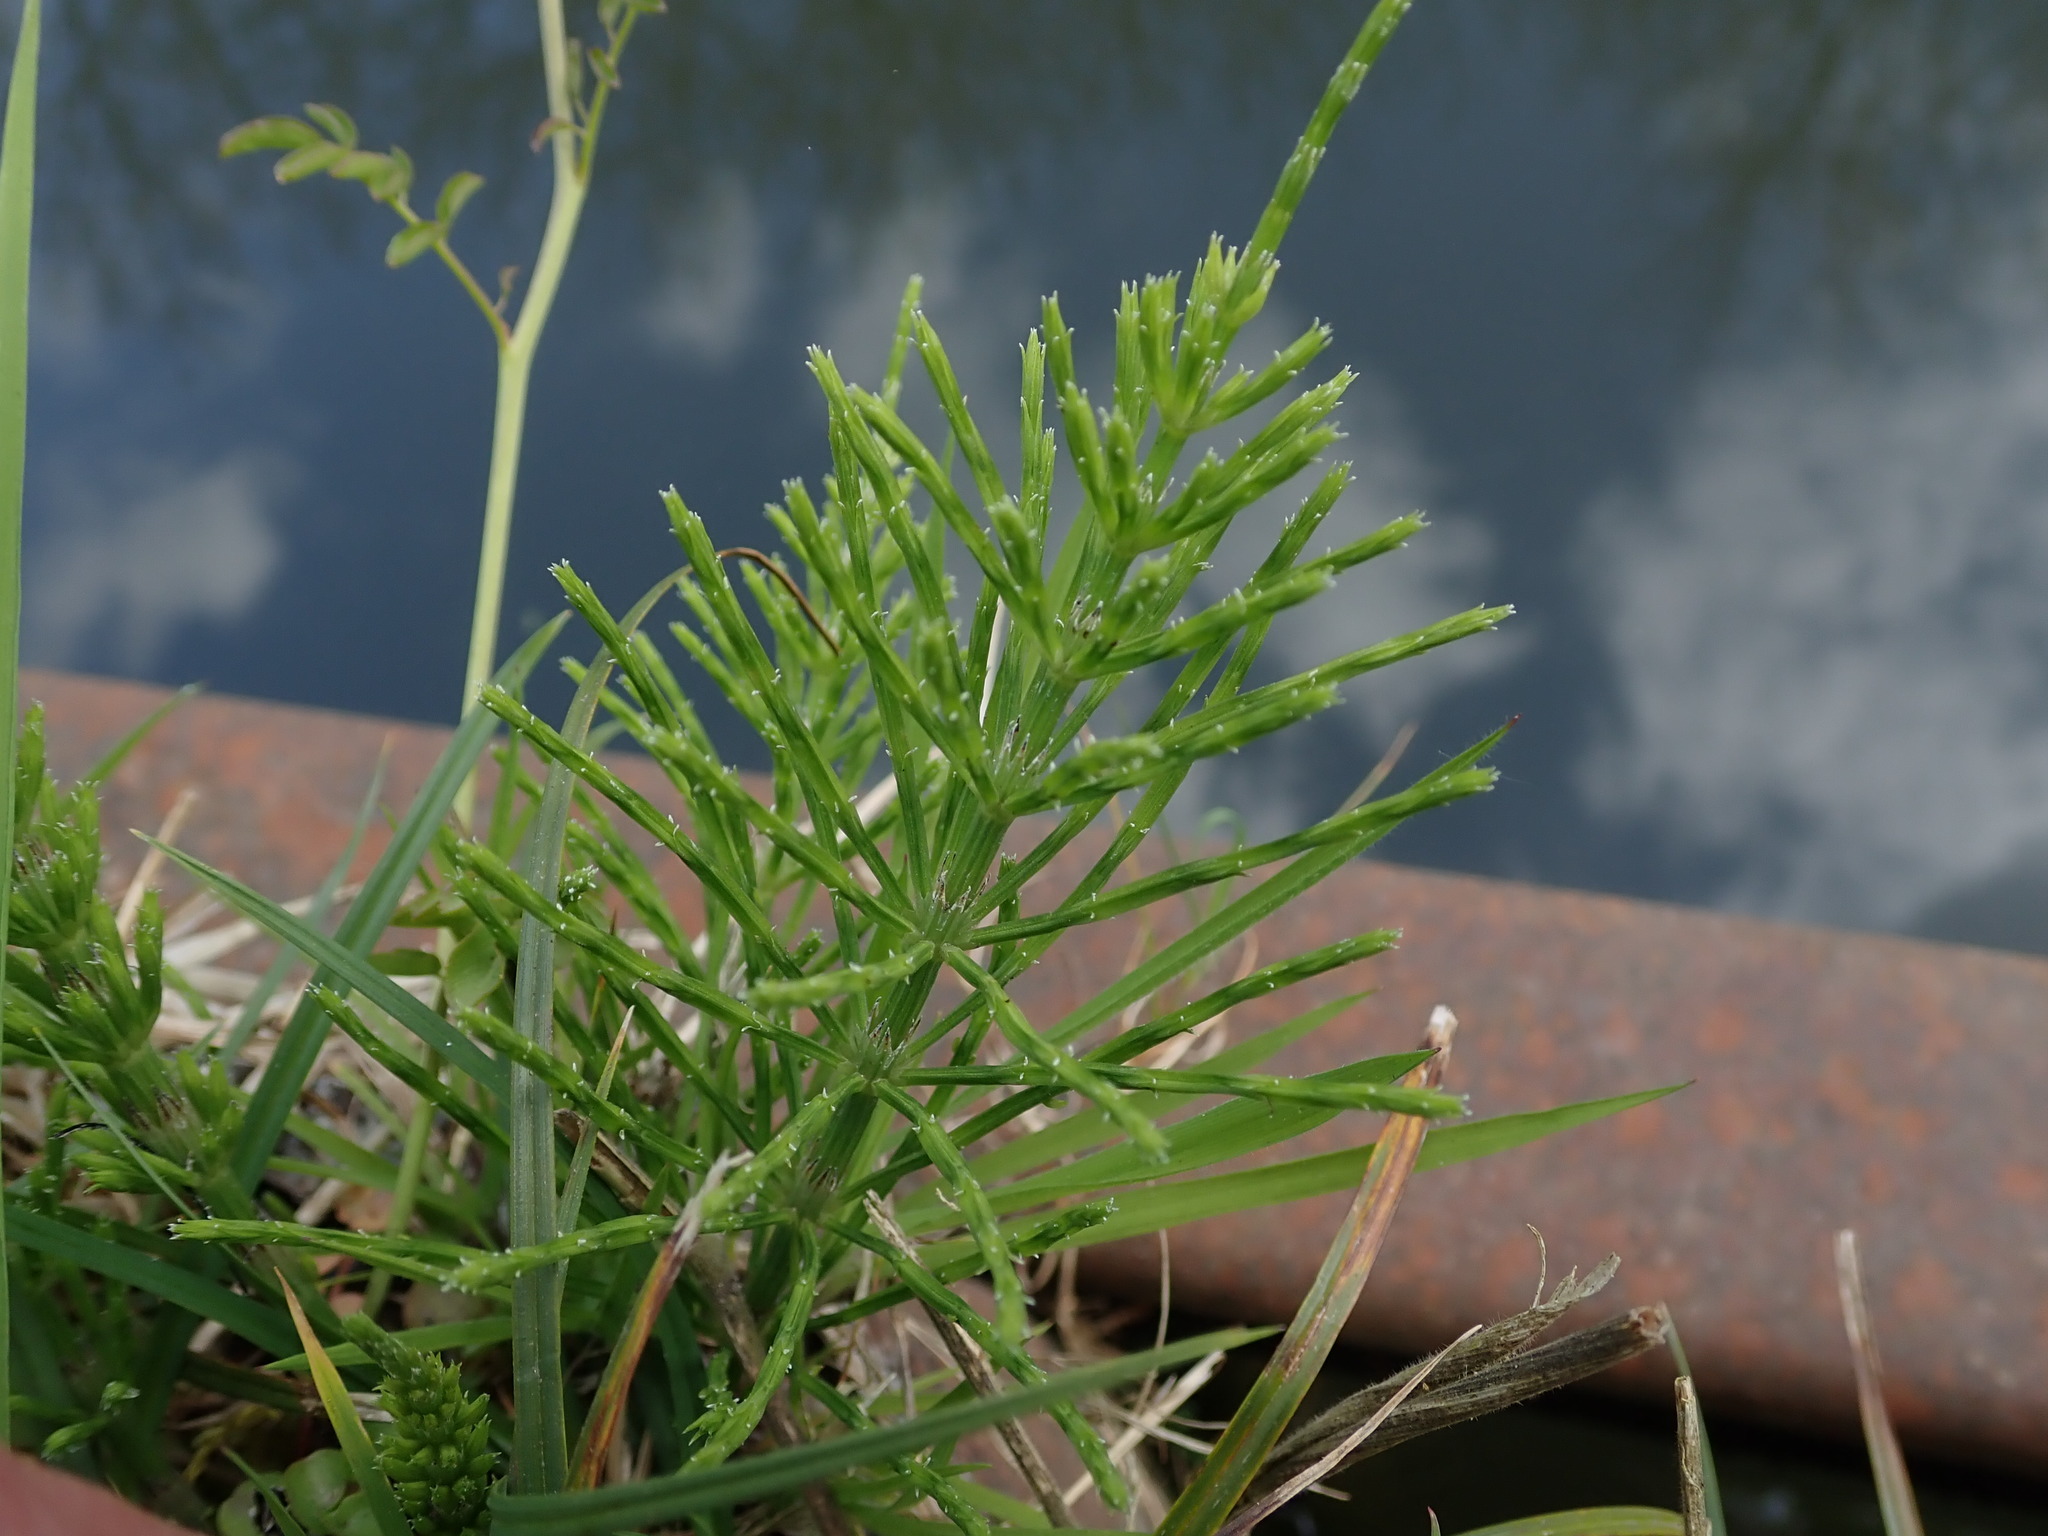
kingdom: Plantae
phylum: Tracheophyta
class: Polypodiopsida
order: Equisetales
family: Equisetaceae
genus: Equisetum
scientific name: Equisetum arvense
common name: Field horsetail
